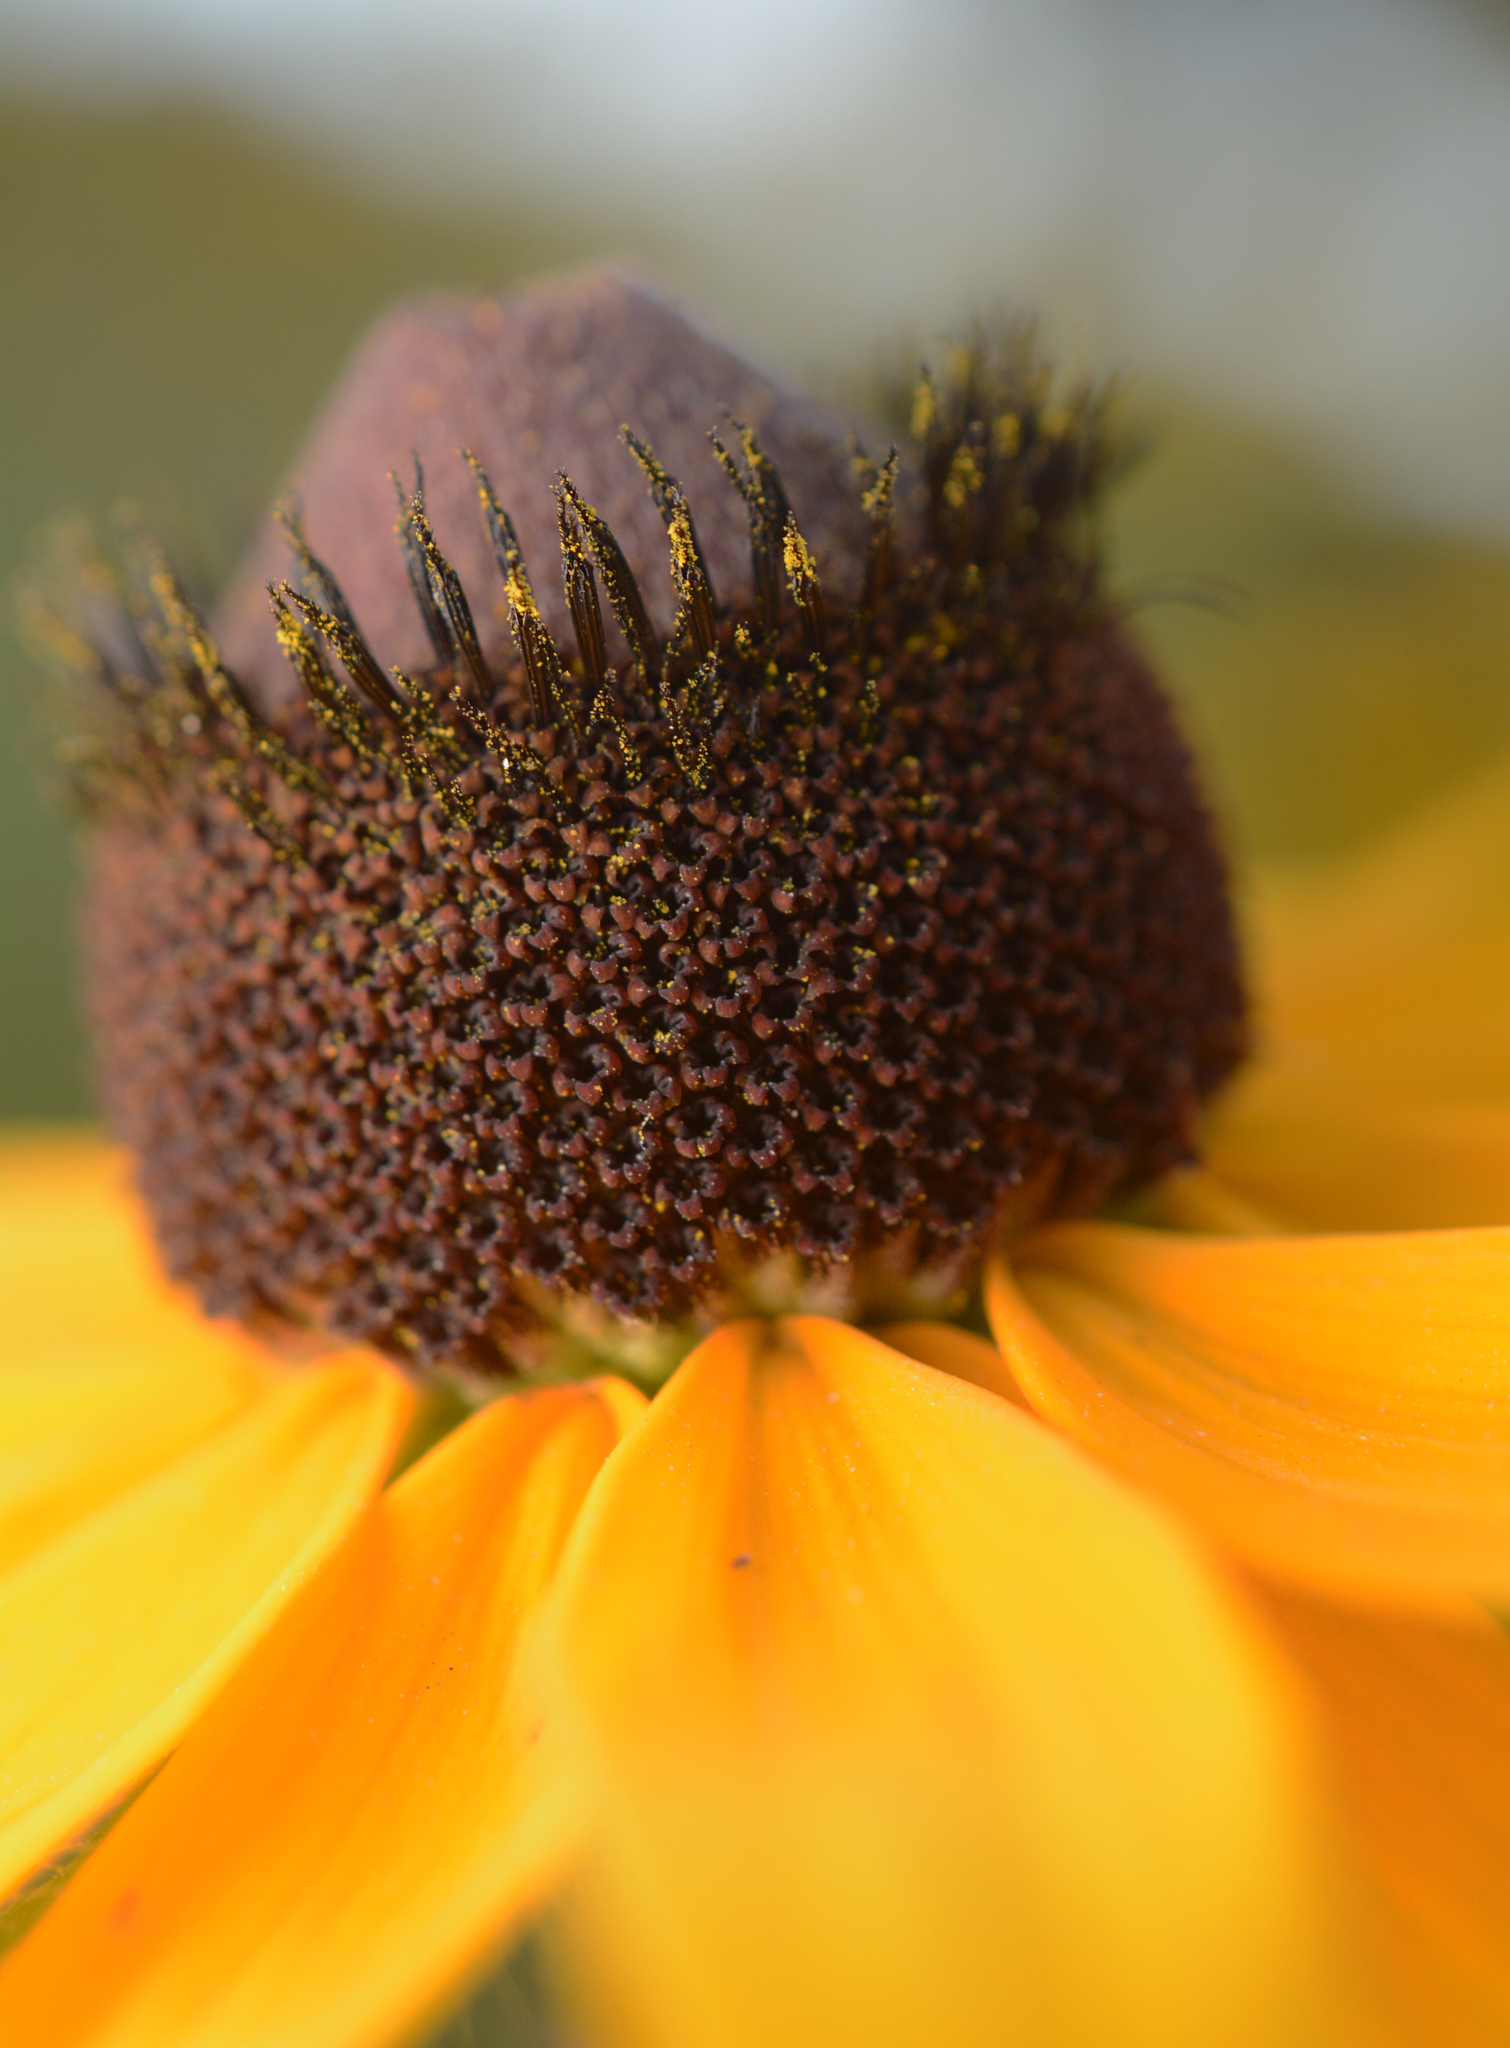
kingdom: Plantae
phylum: Tracheophyta
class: Magnoliopsida
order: Asterales
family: Asteraceae
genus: Rudbeckia
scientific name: Rudbeckia hirta
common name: Black-eyed-susan
